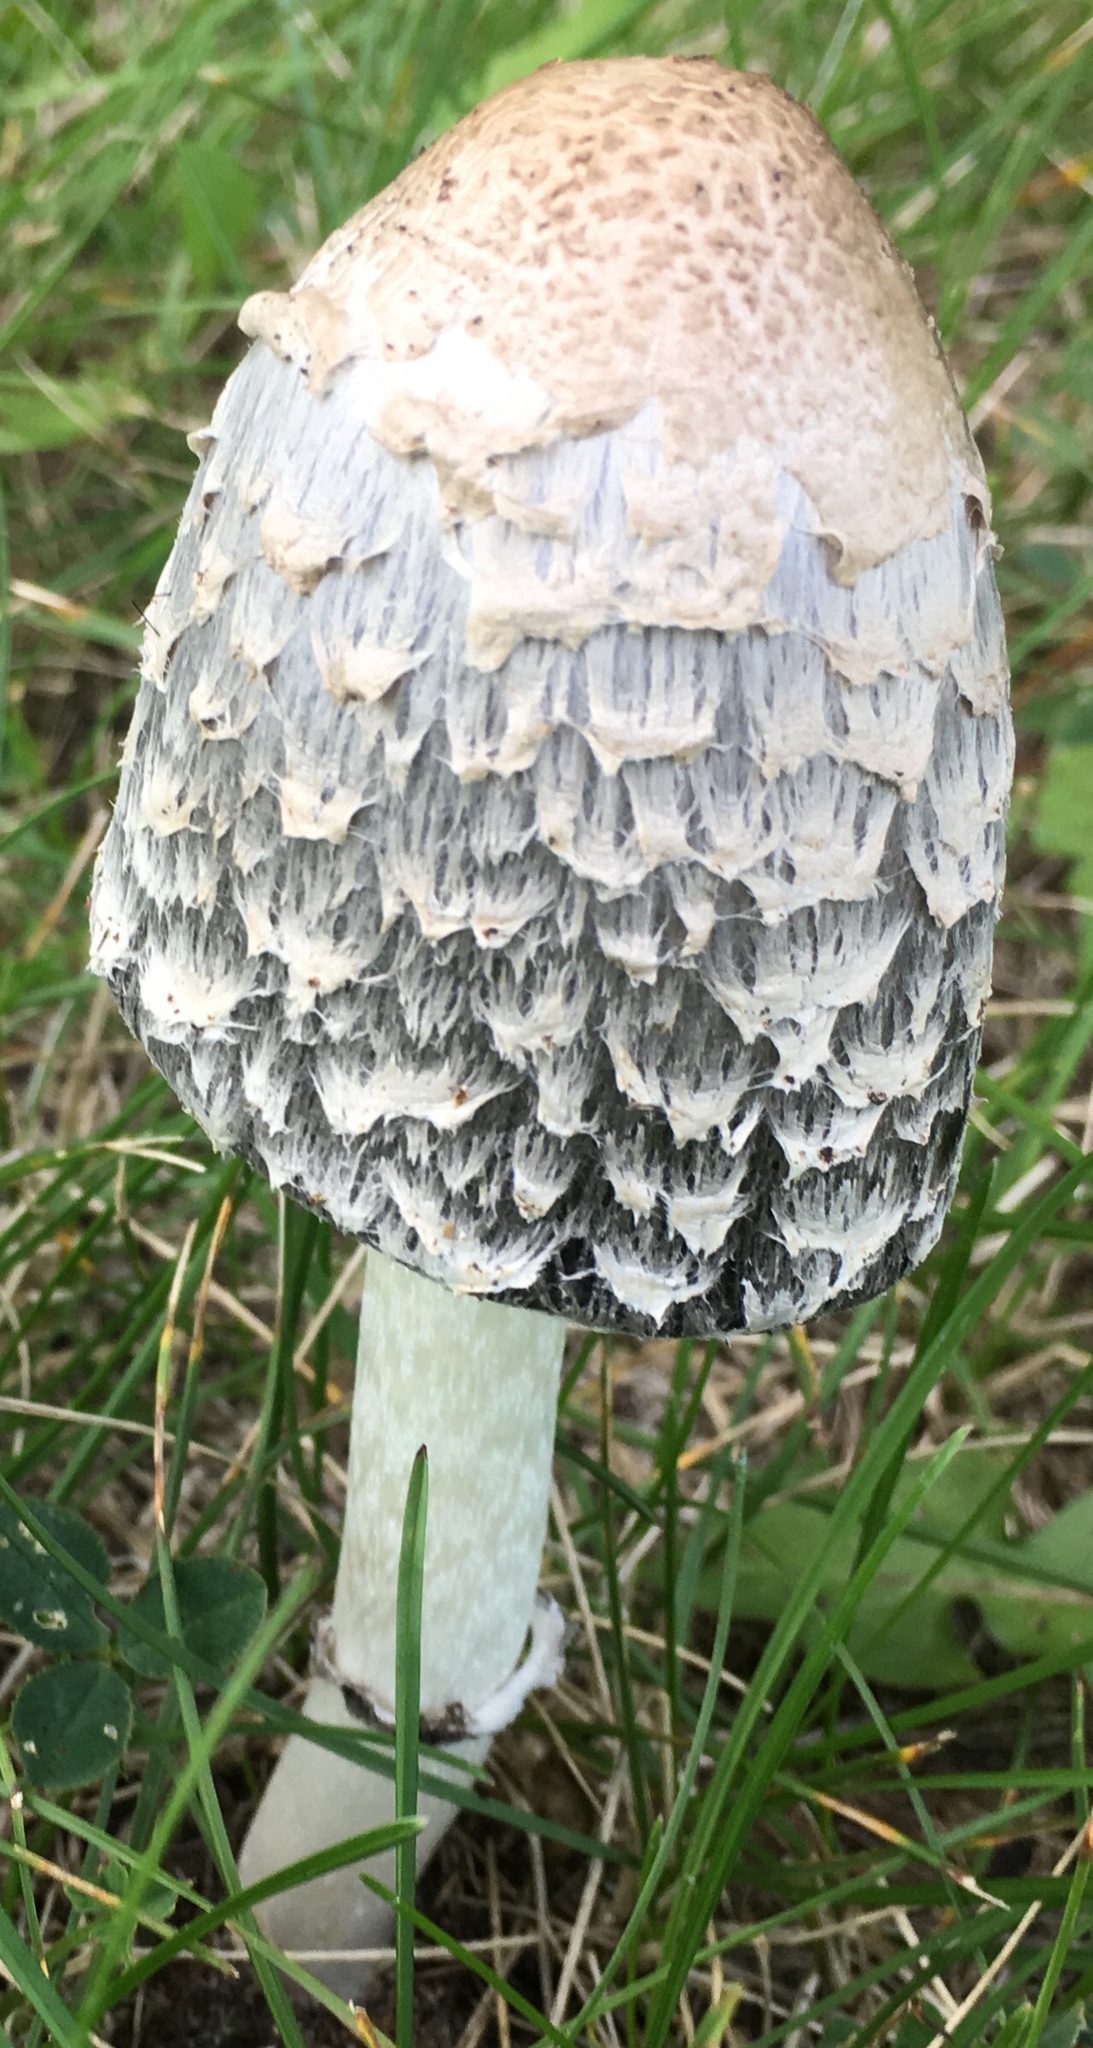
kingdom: Fungi
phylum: Basidiomycota
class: Agaricomycetes
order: Agaricales
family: Agaricaceae
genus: Coprinus
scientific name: Coprinus comatus
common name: Lawyer's wig
